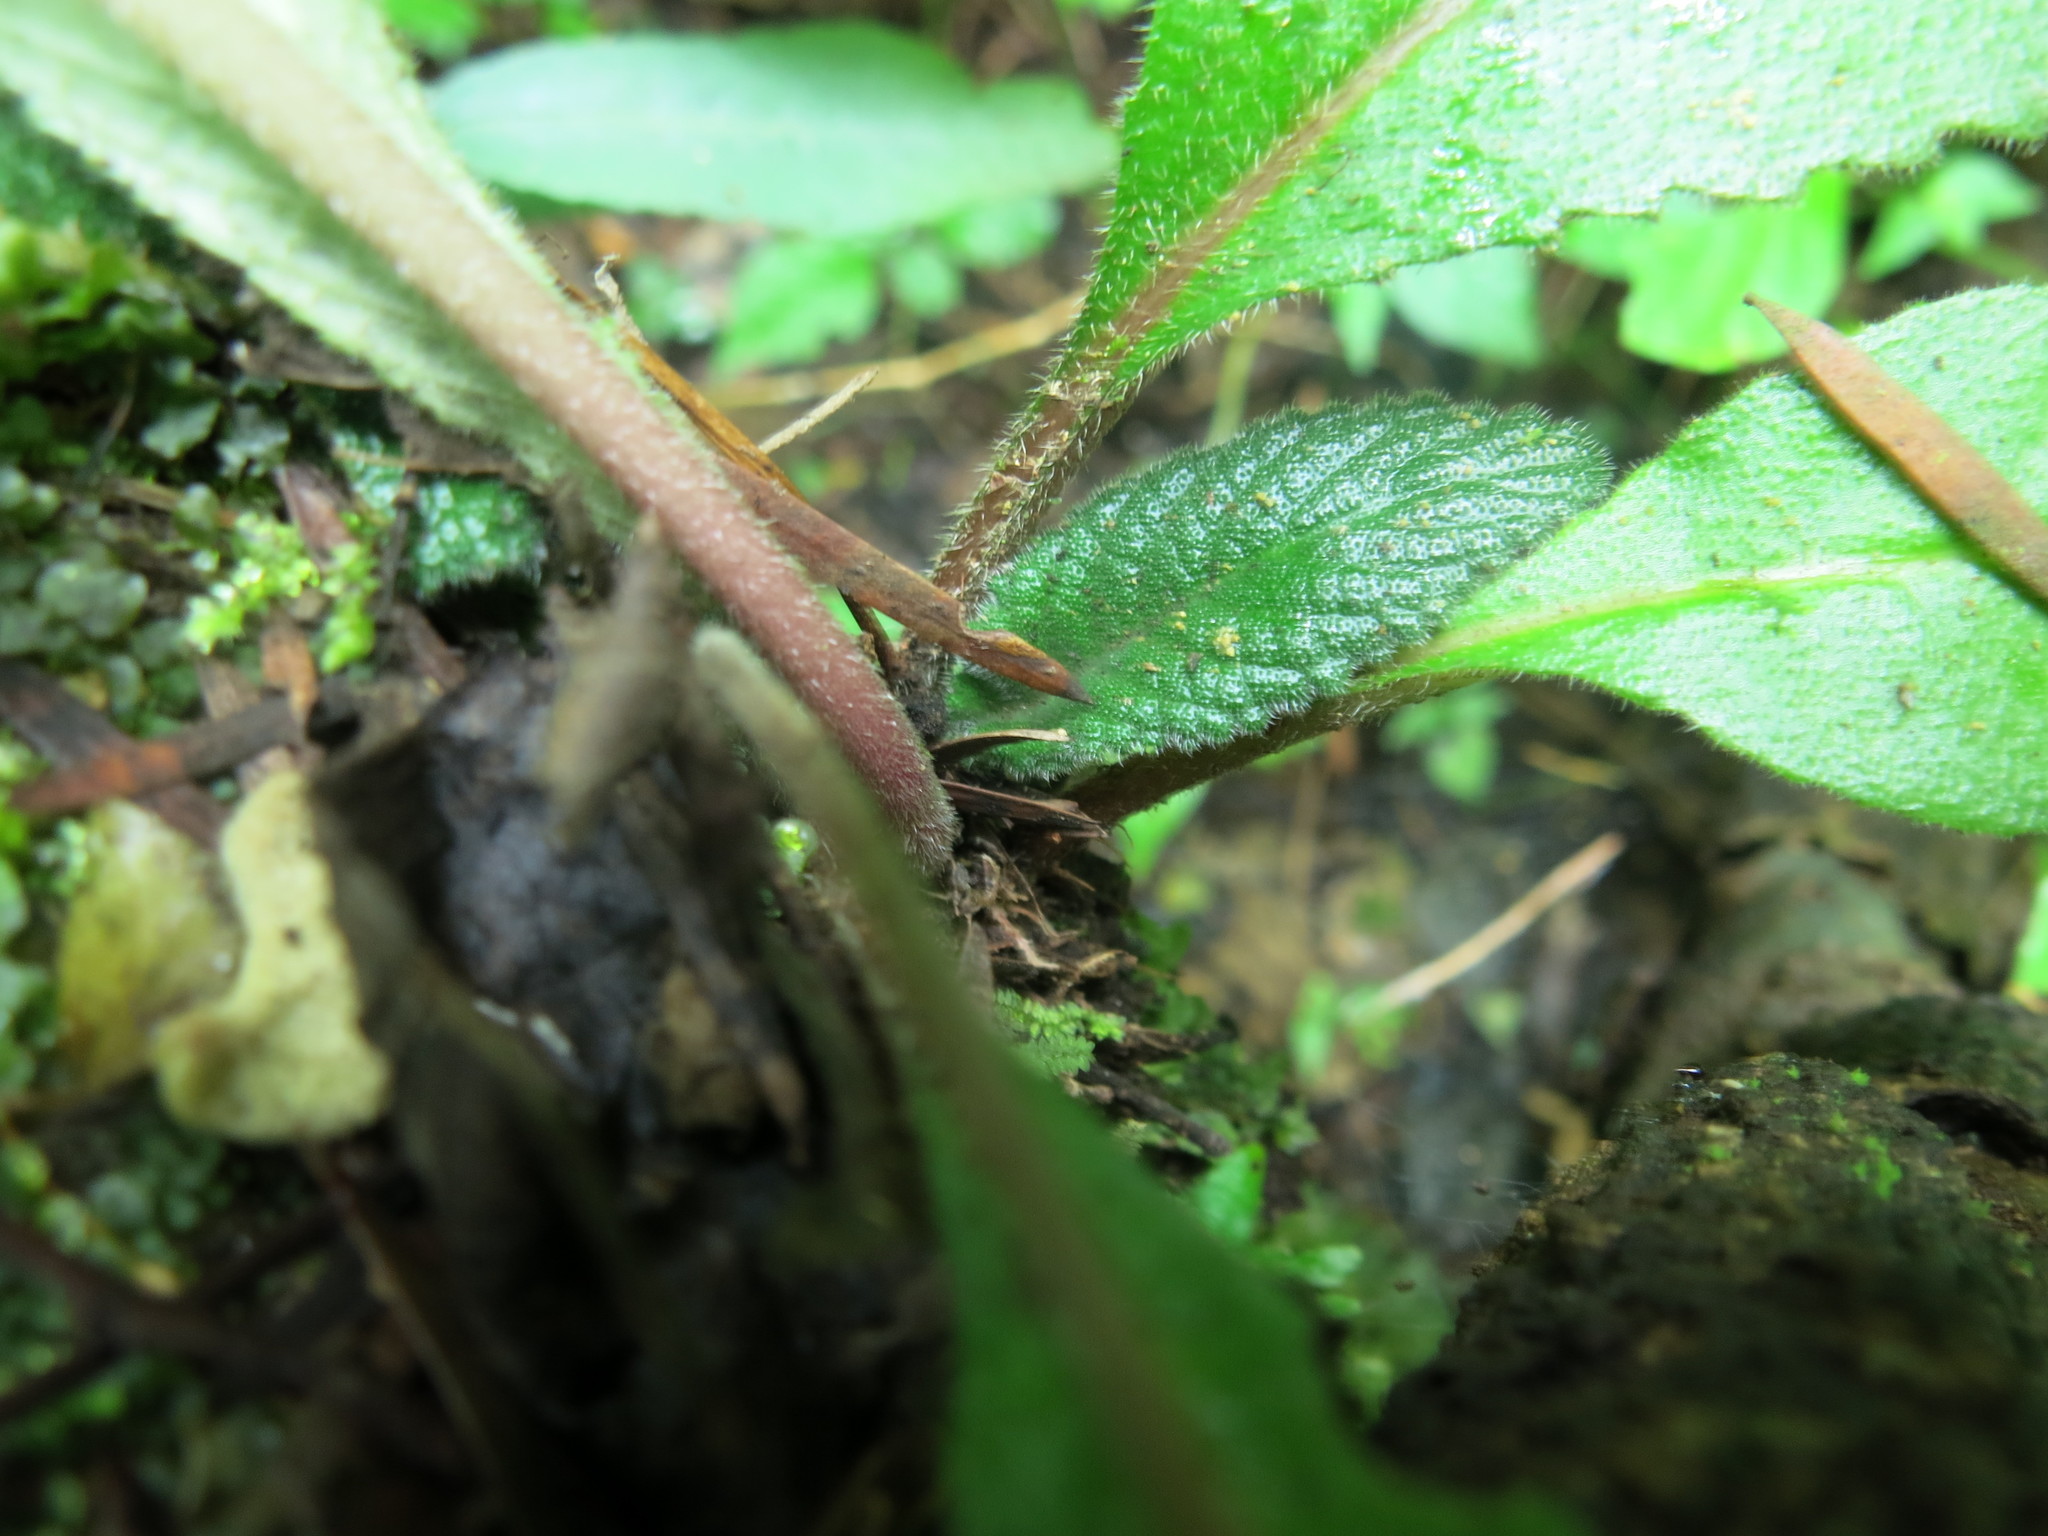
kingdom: Plantae
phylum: Tracheophyta
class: Magnoliopsida
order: Lamiales
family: Gesneriaceae
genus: Streptocarpus
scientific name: Streptocarpus gardenii
